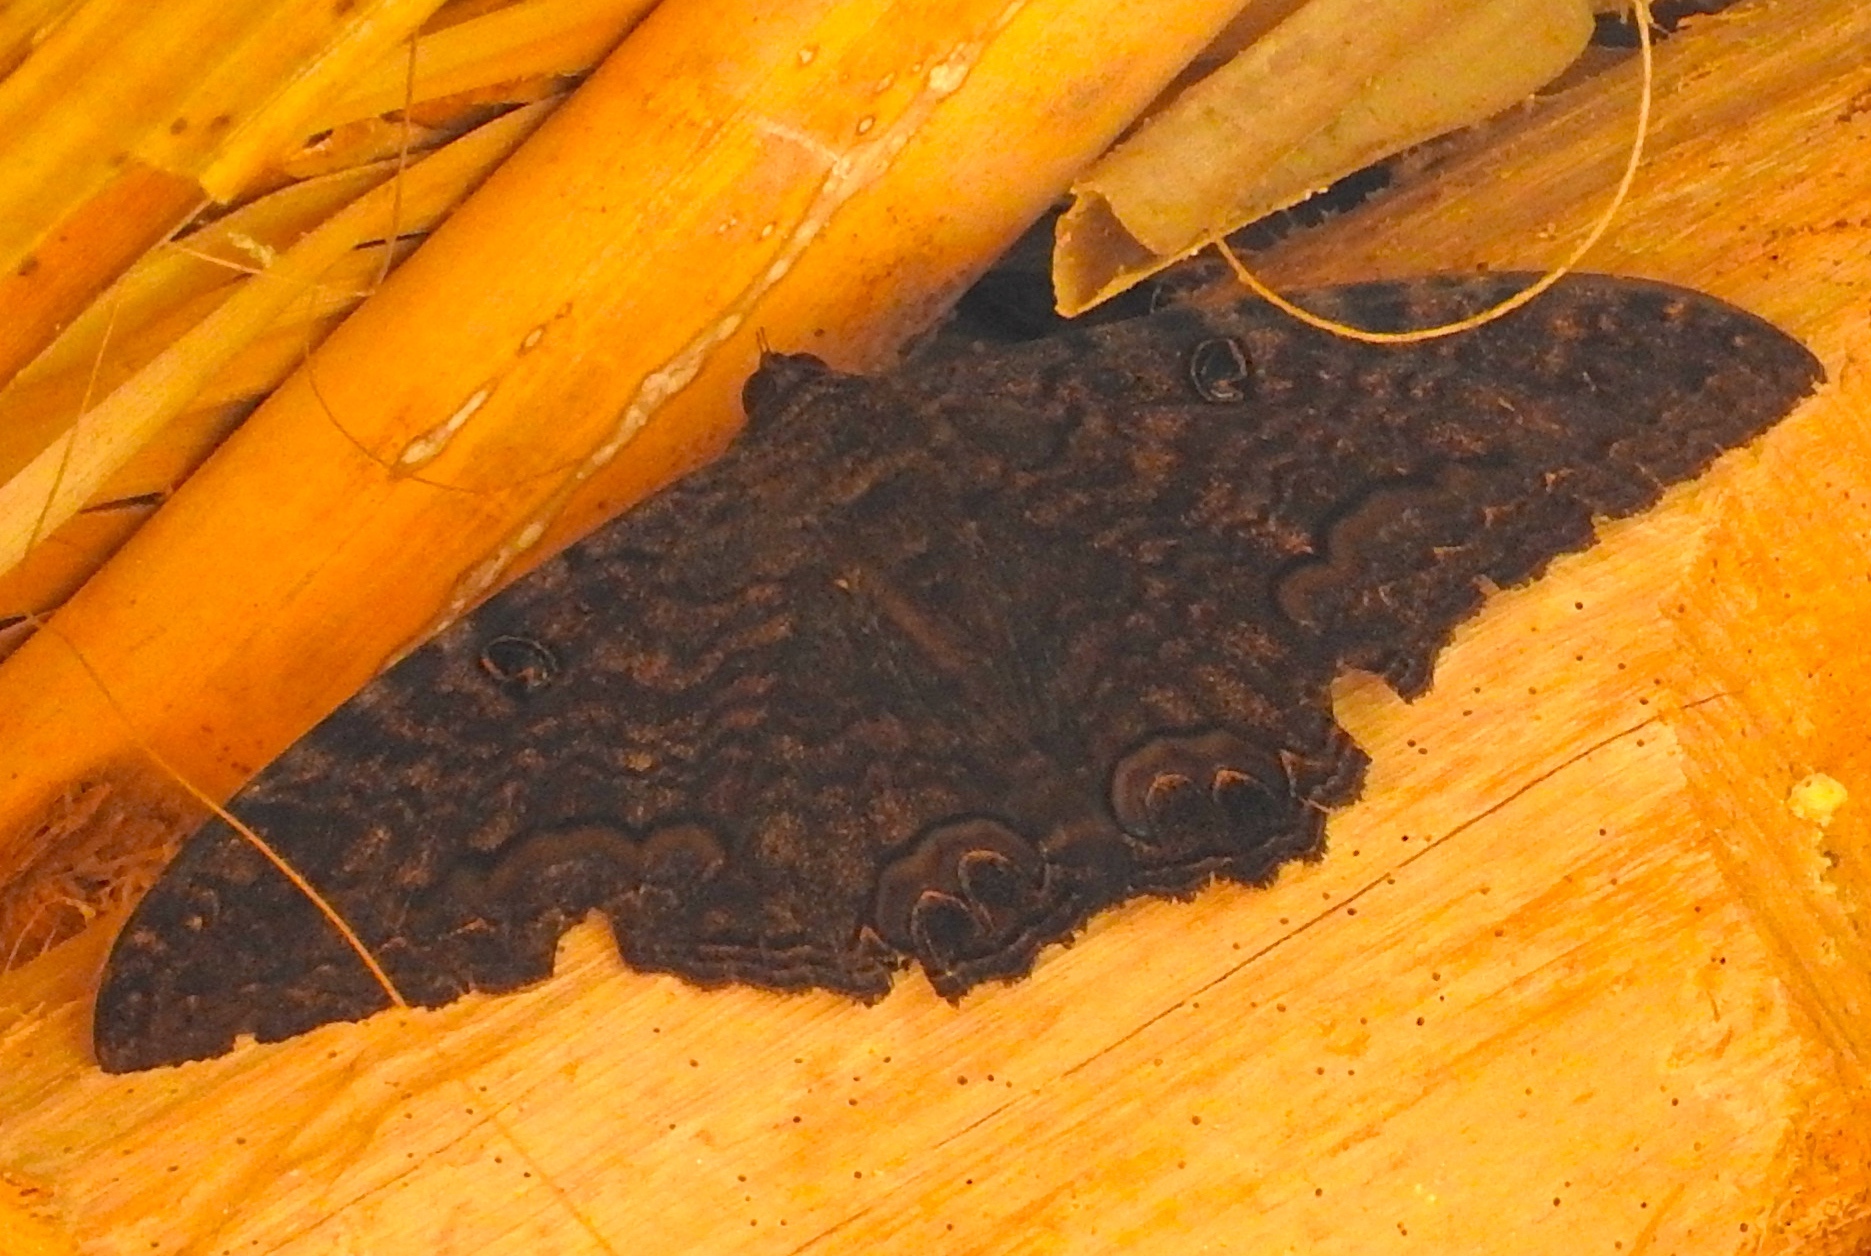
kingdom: Animalia
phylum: Arthropoda
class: Insecta
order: Lepidoptera
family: Erebidae
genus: Ascalapha
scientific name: Ascalapha odorata
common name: Black witch
